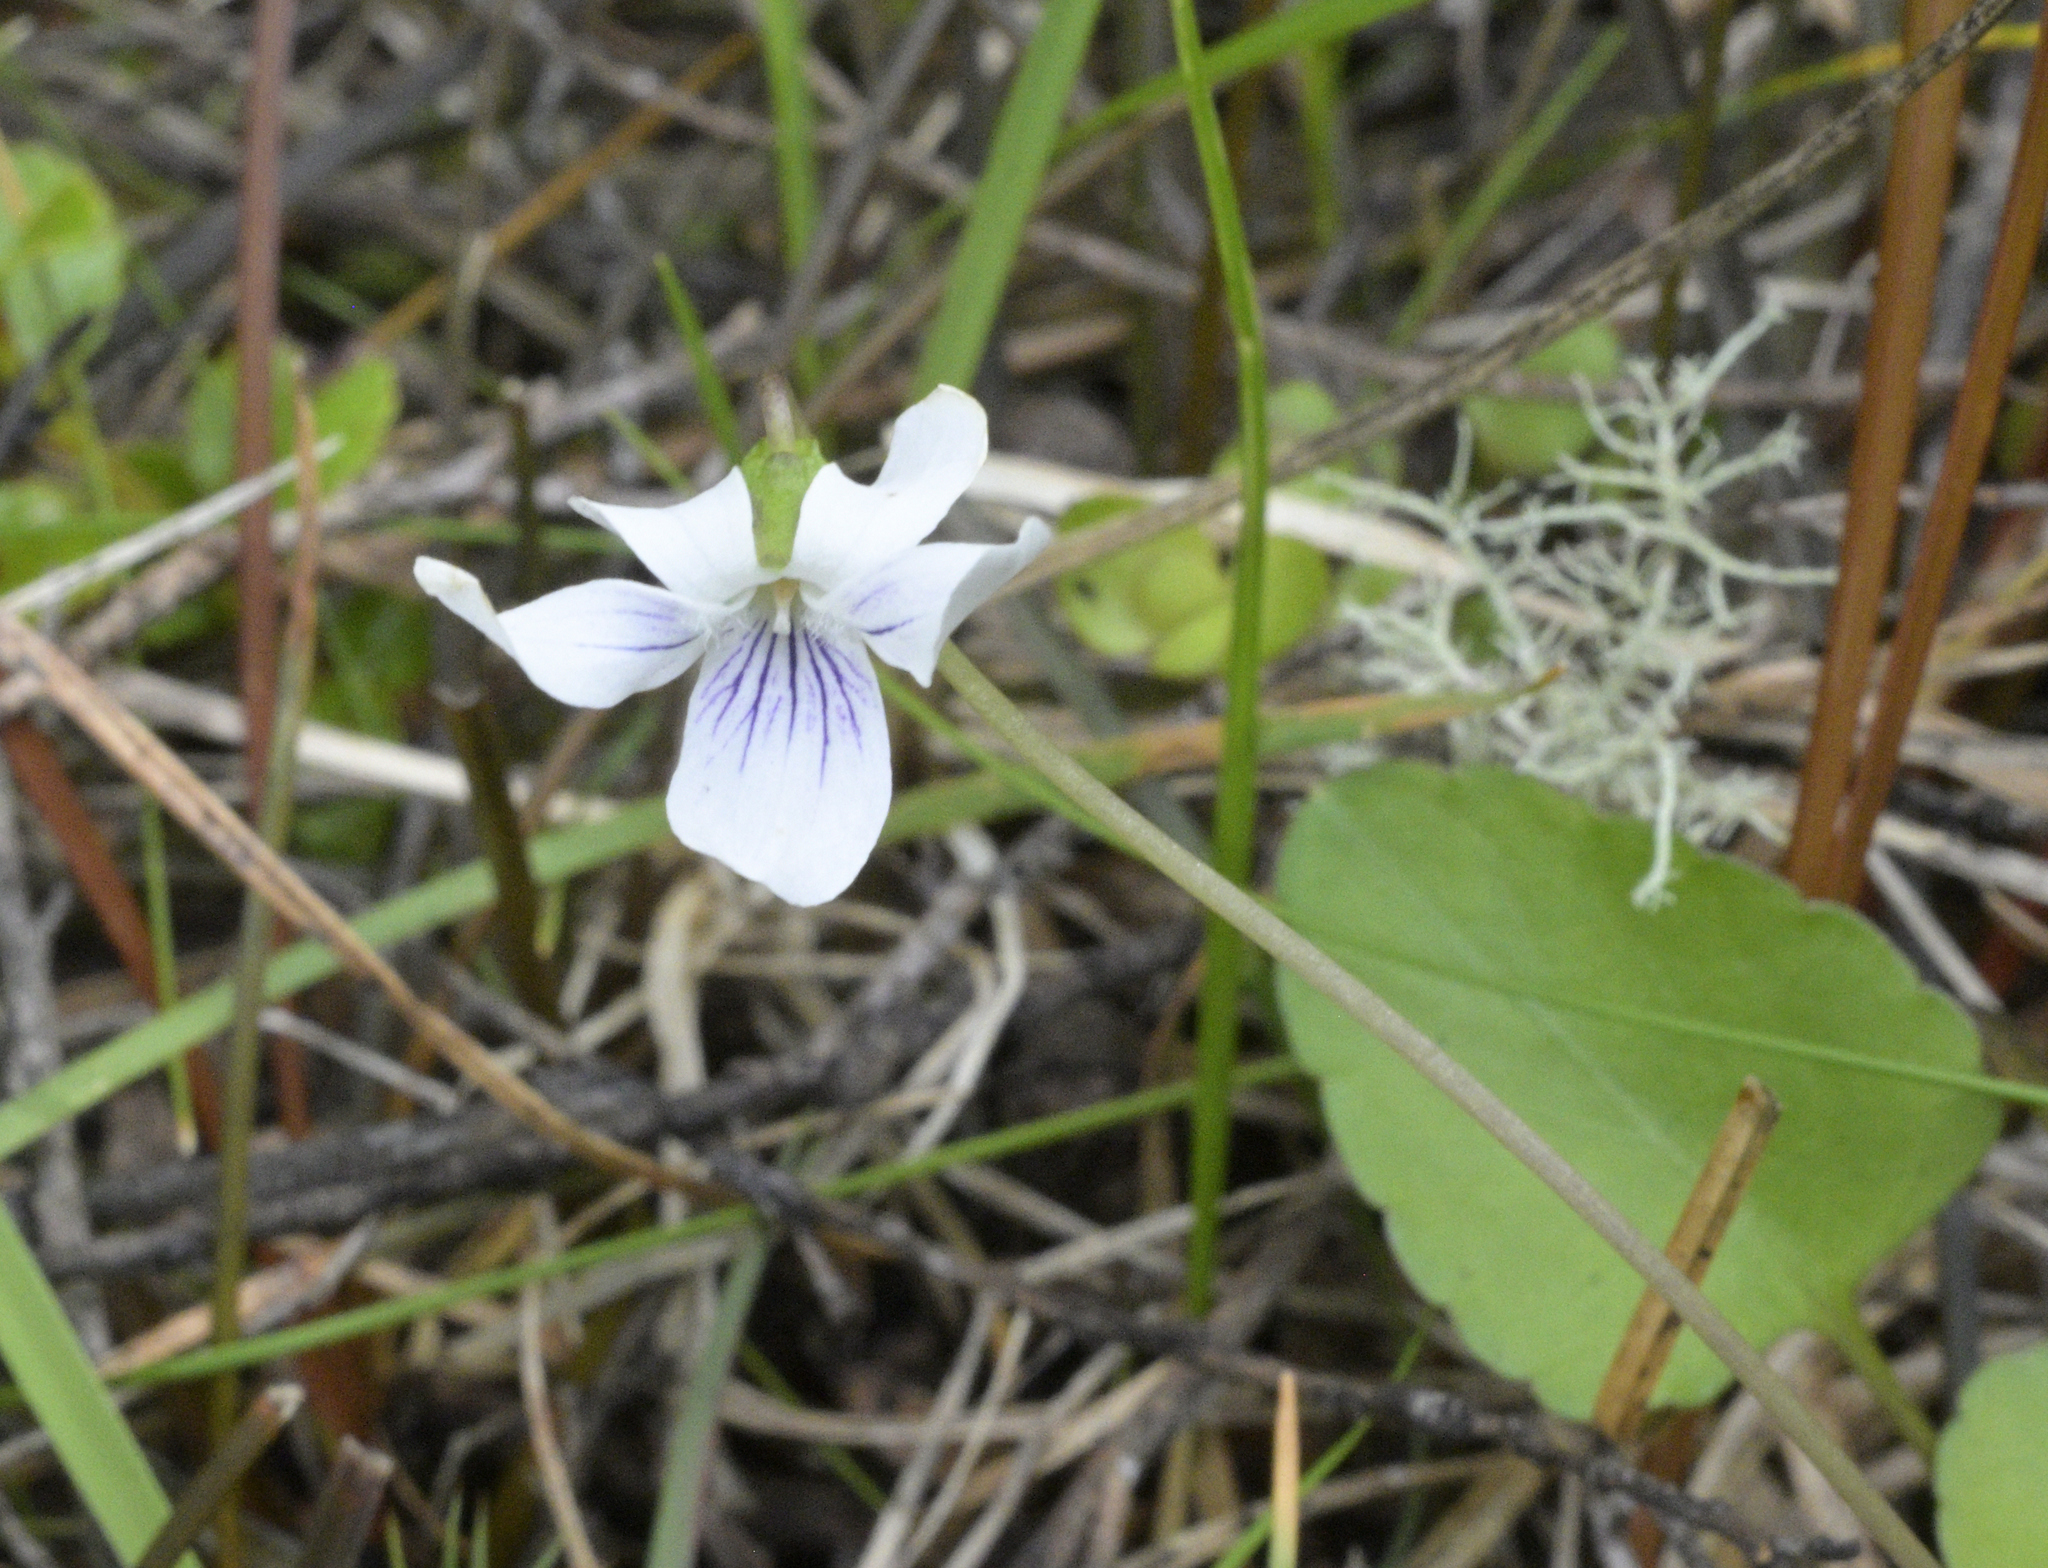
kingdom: Plantae
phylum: Tracheophyta
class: Magnoliopsida
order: Malpighiales
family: Violaceae
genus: Viola
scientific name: Viola cunninghamii
